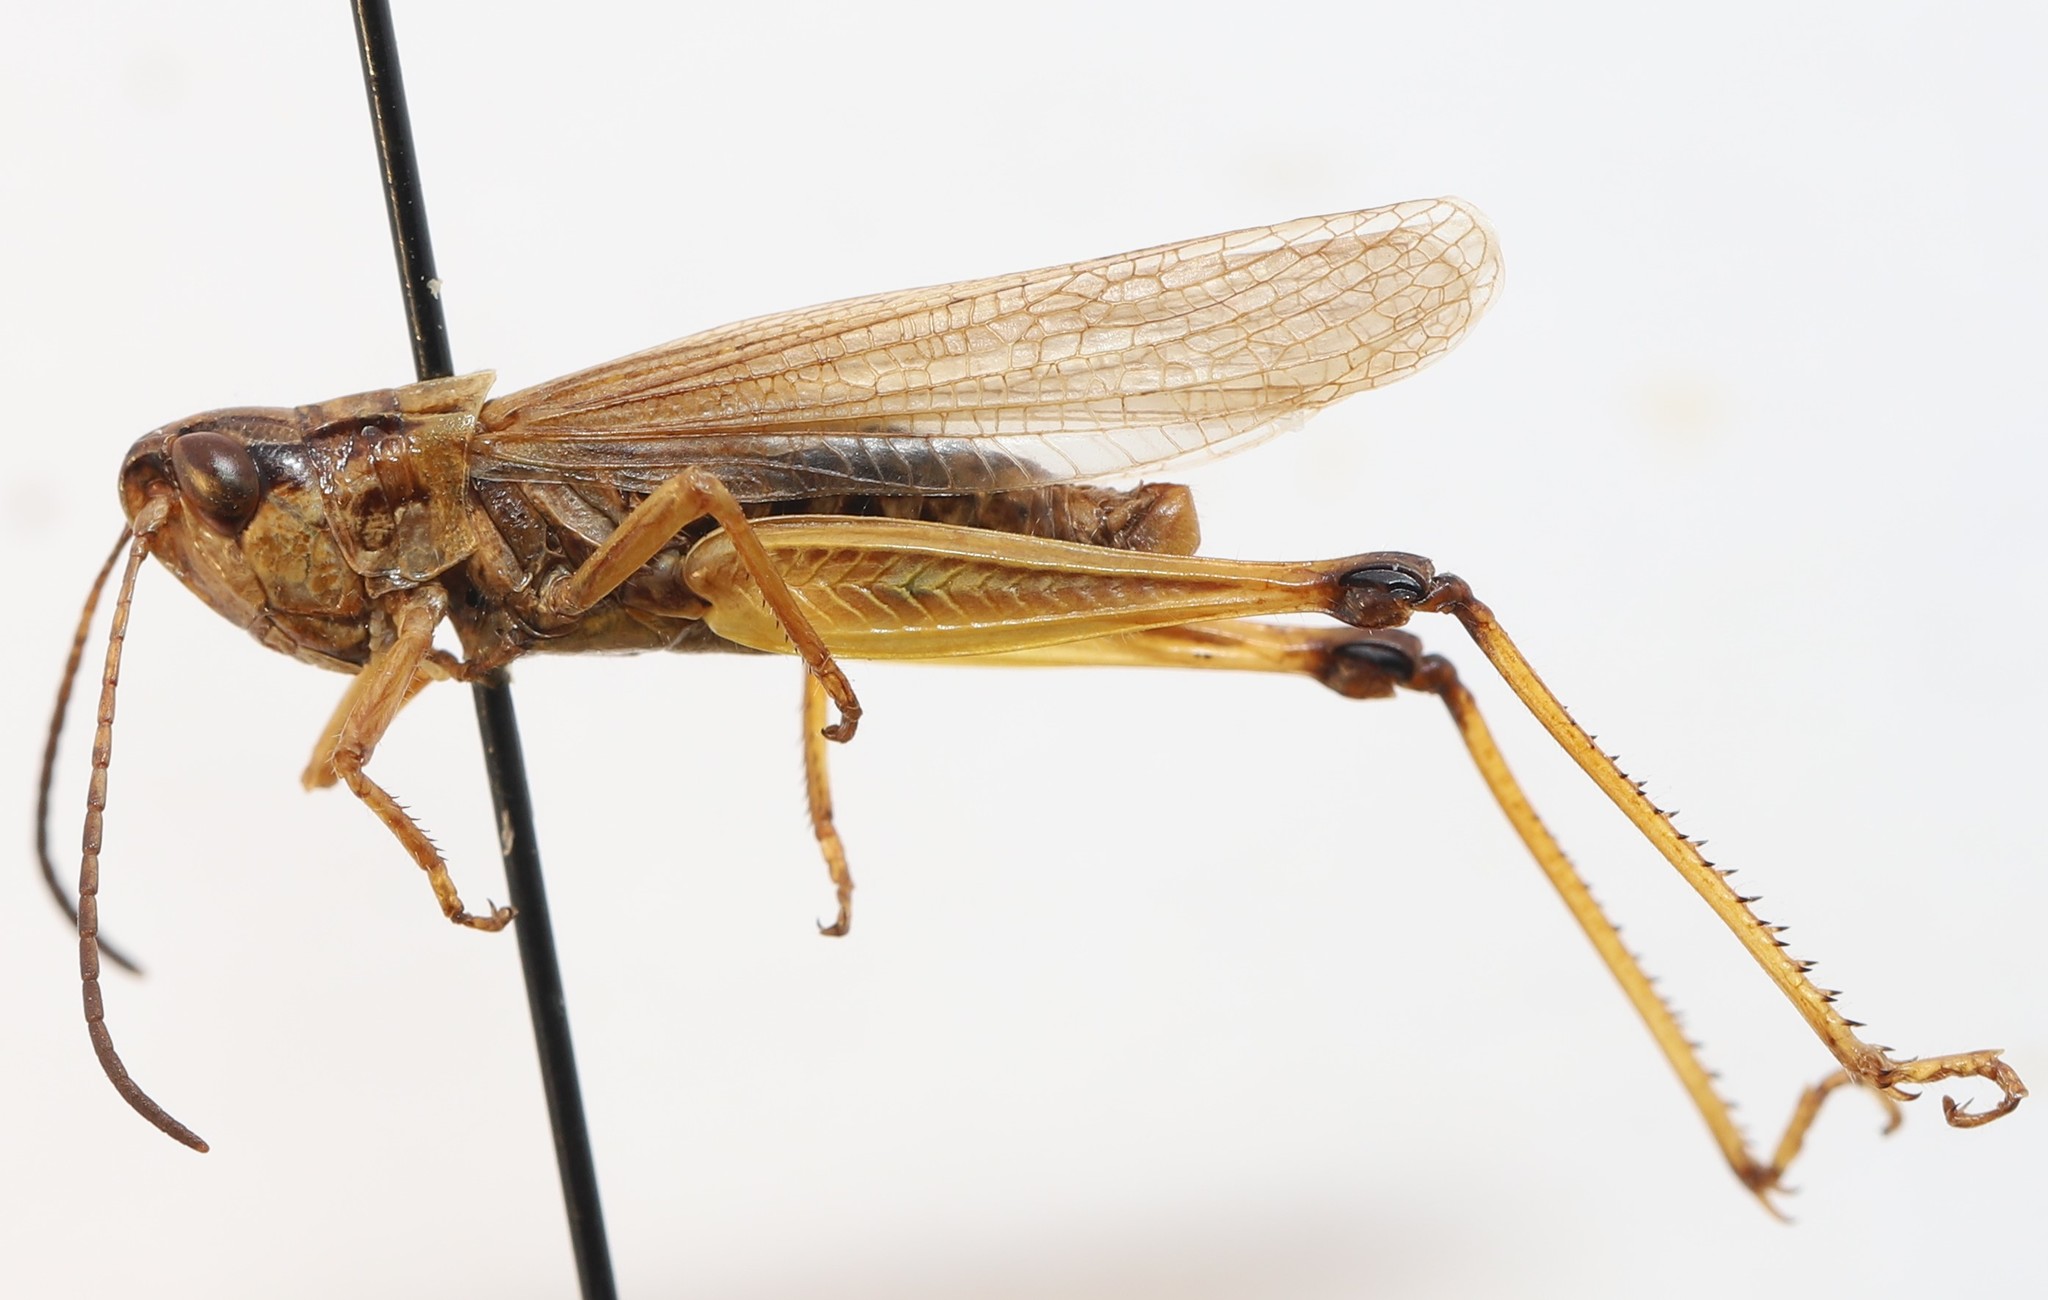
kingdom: Animalia
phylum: Arthropoda
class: Insecta
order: Orthoptera
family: Acrididae
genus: Pseudochorthippus
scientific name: Pseudochorthippus curtipennis
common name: Marsh meadow grasshopper
